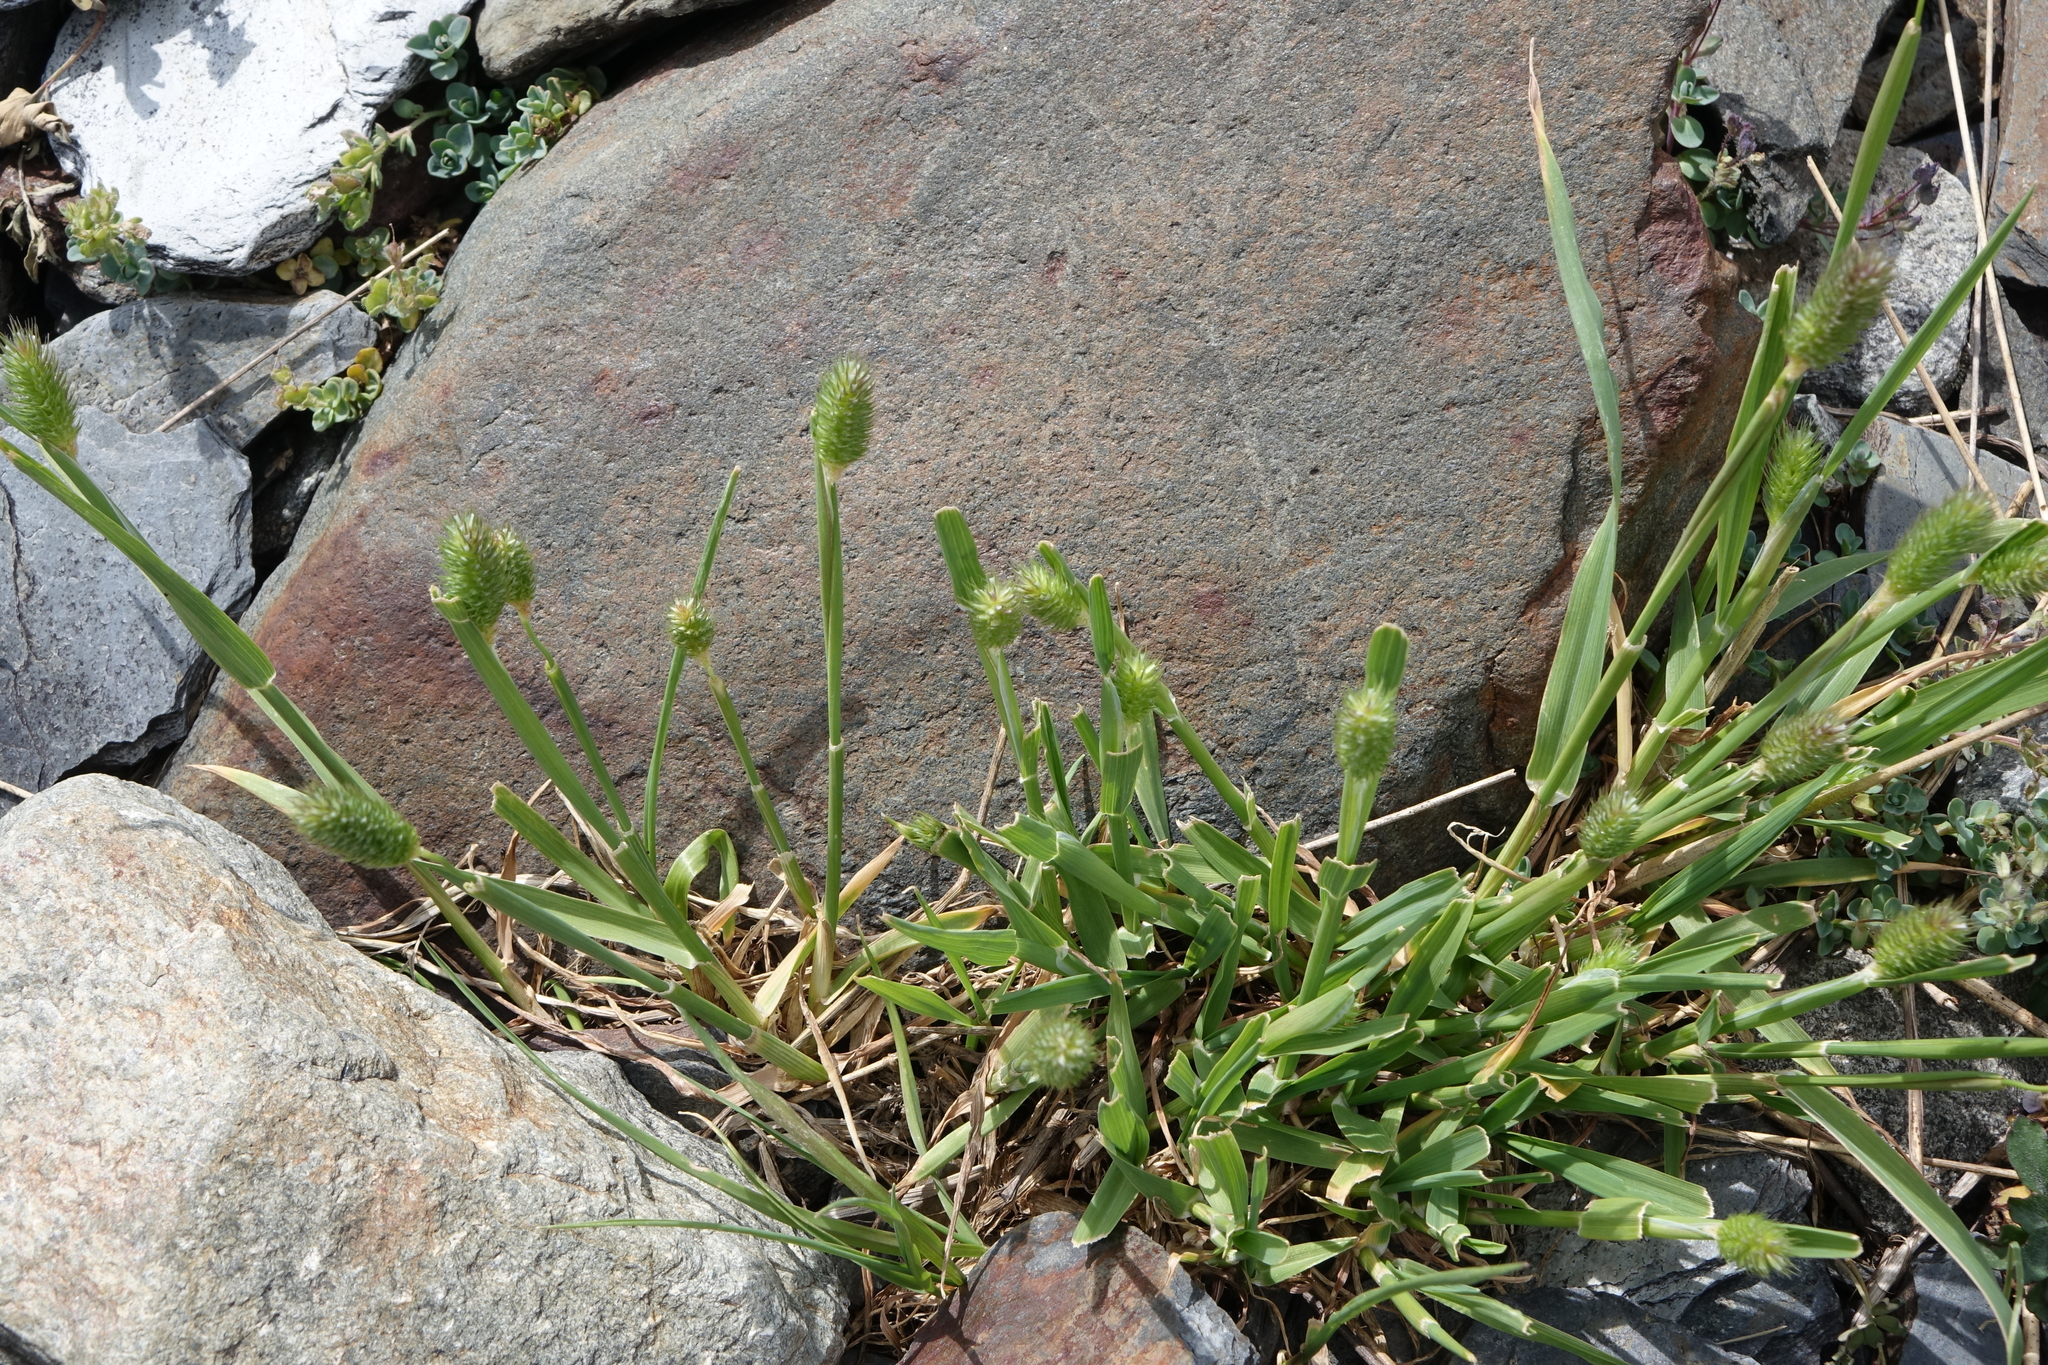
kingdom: Plantae
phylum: Tracheophyta
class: Liliopsida
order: Poales
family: Poaceae
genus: Phleum
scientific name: Phleum alpinum
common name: Alpine cat's-tail
